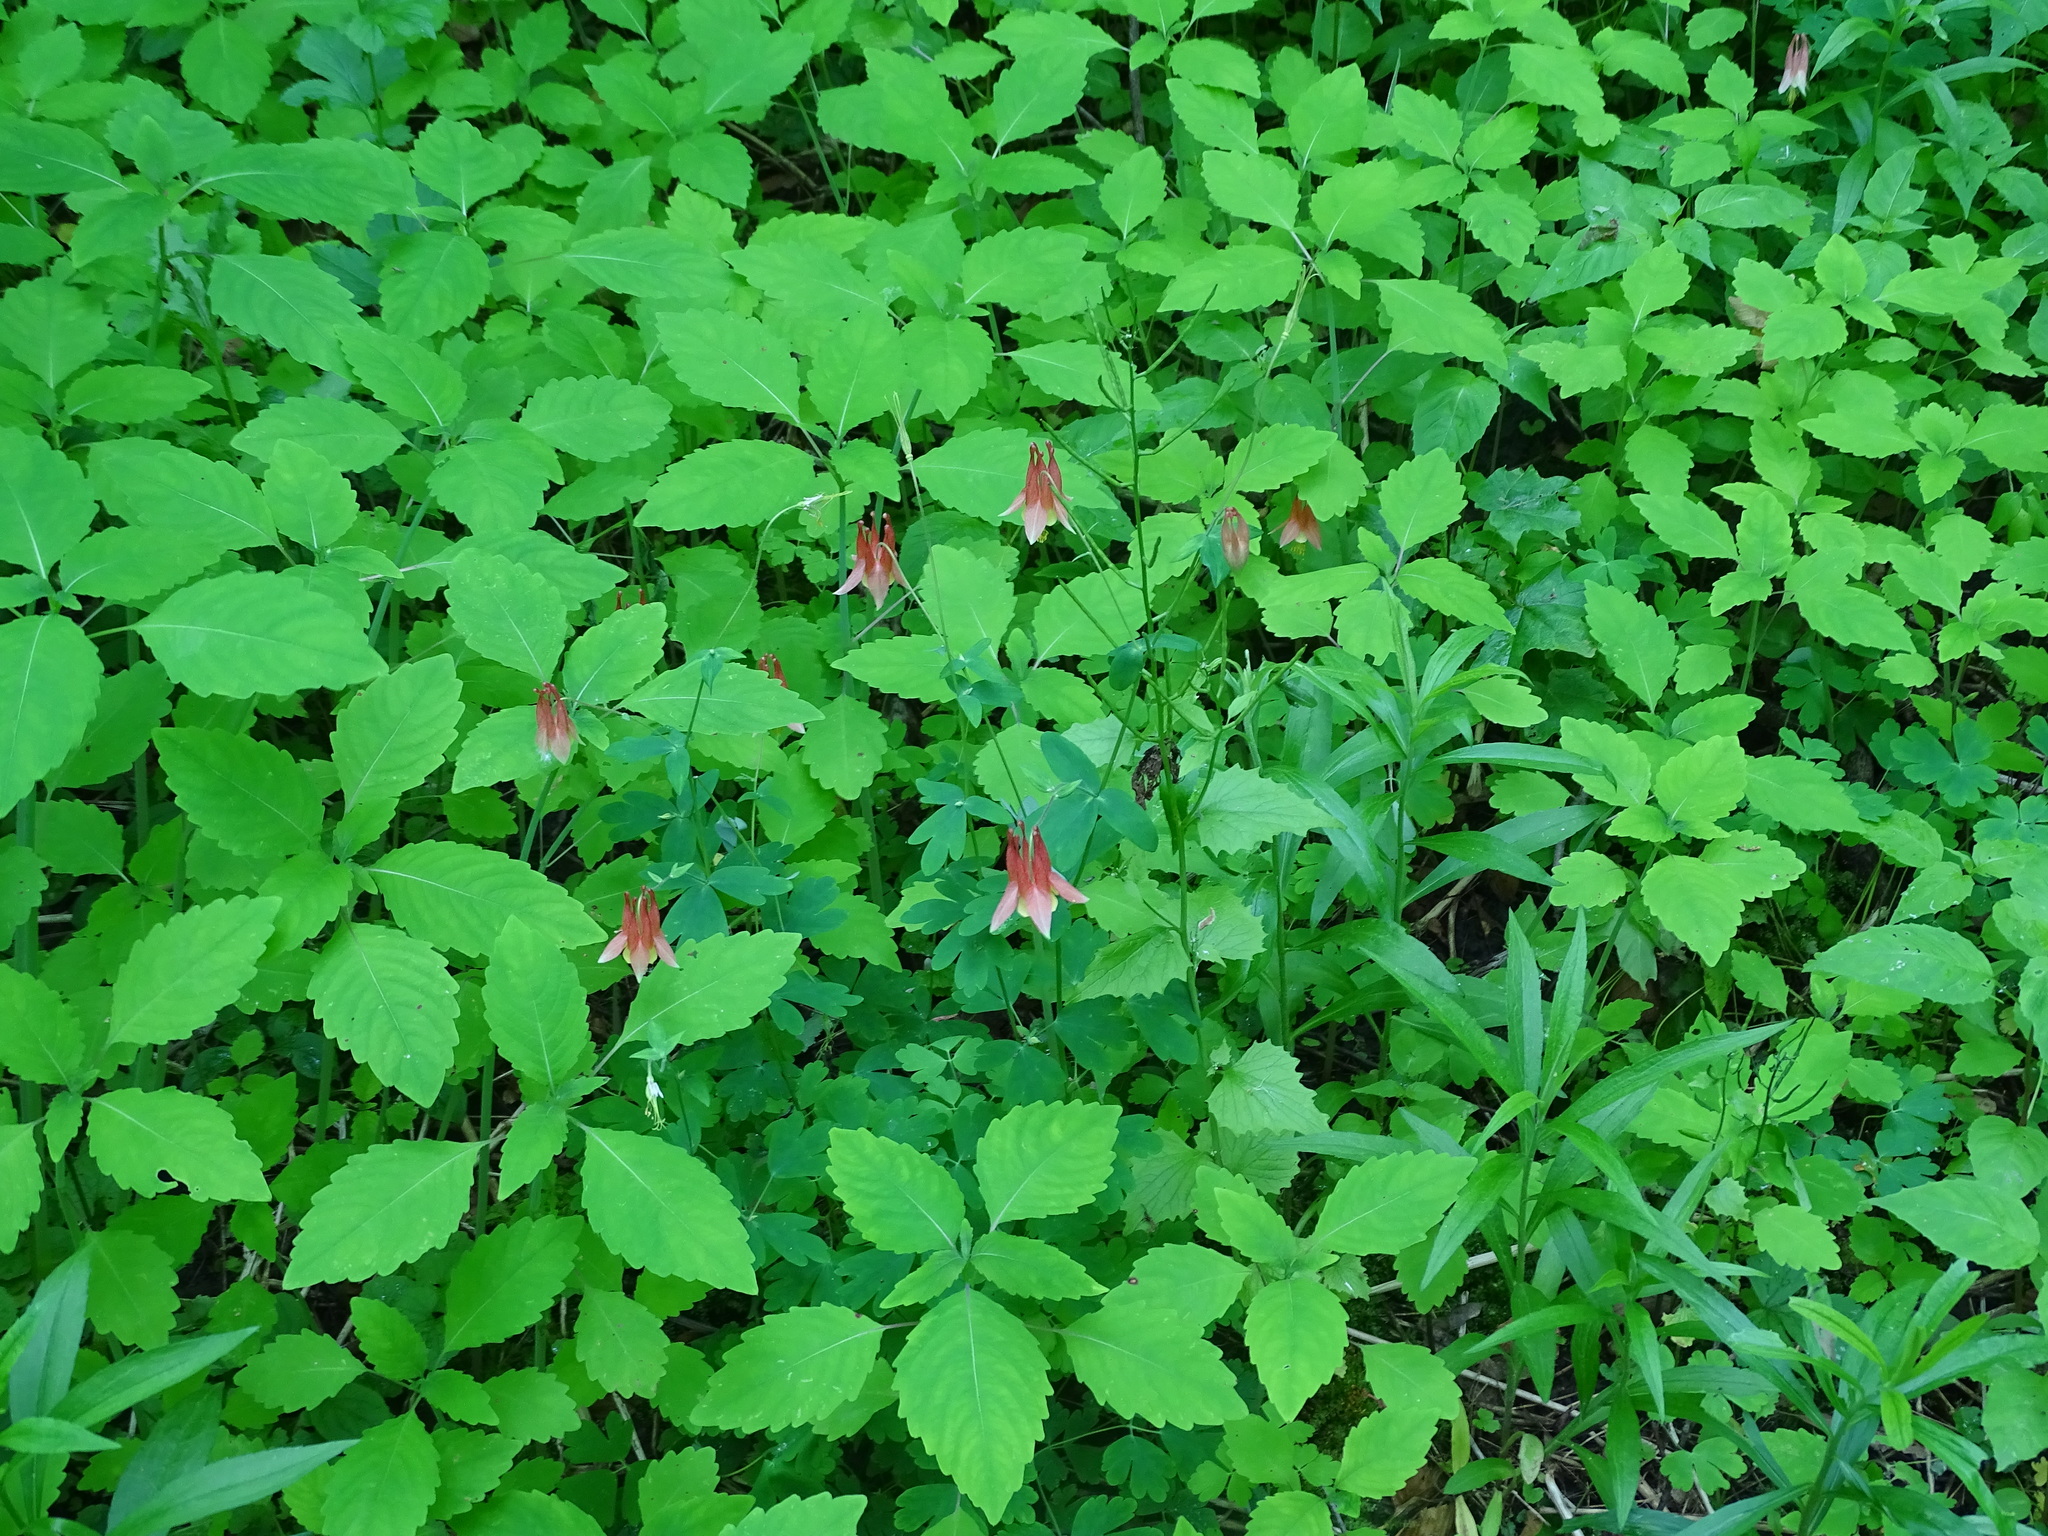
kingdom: Plantae
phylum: Tracheophyta
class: Magnoliopsida
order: Ranunculales
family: Ranunculaceae
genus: Aquilegia
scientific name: Aquilegia canadensis
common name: American columbine
